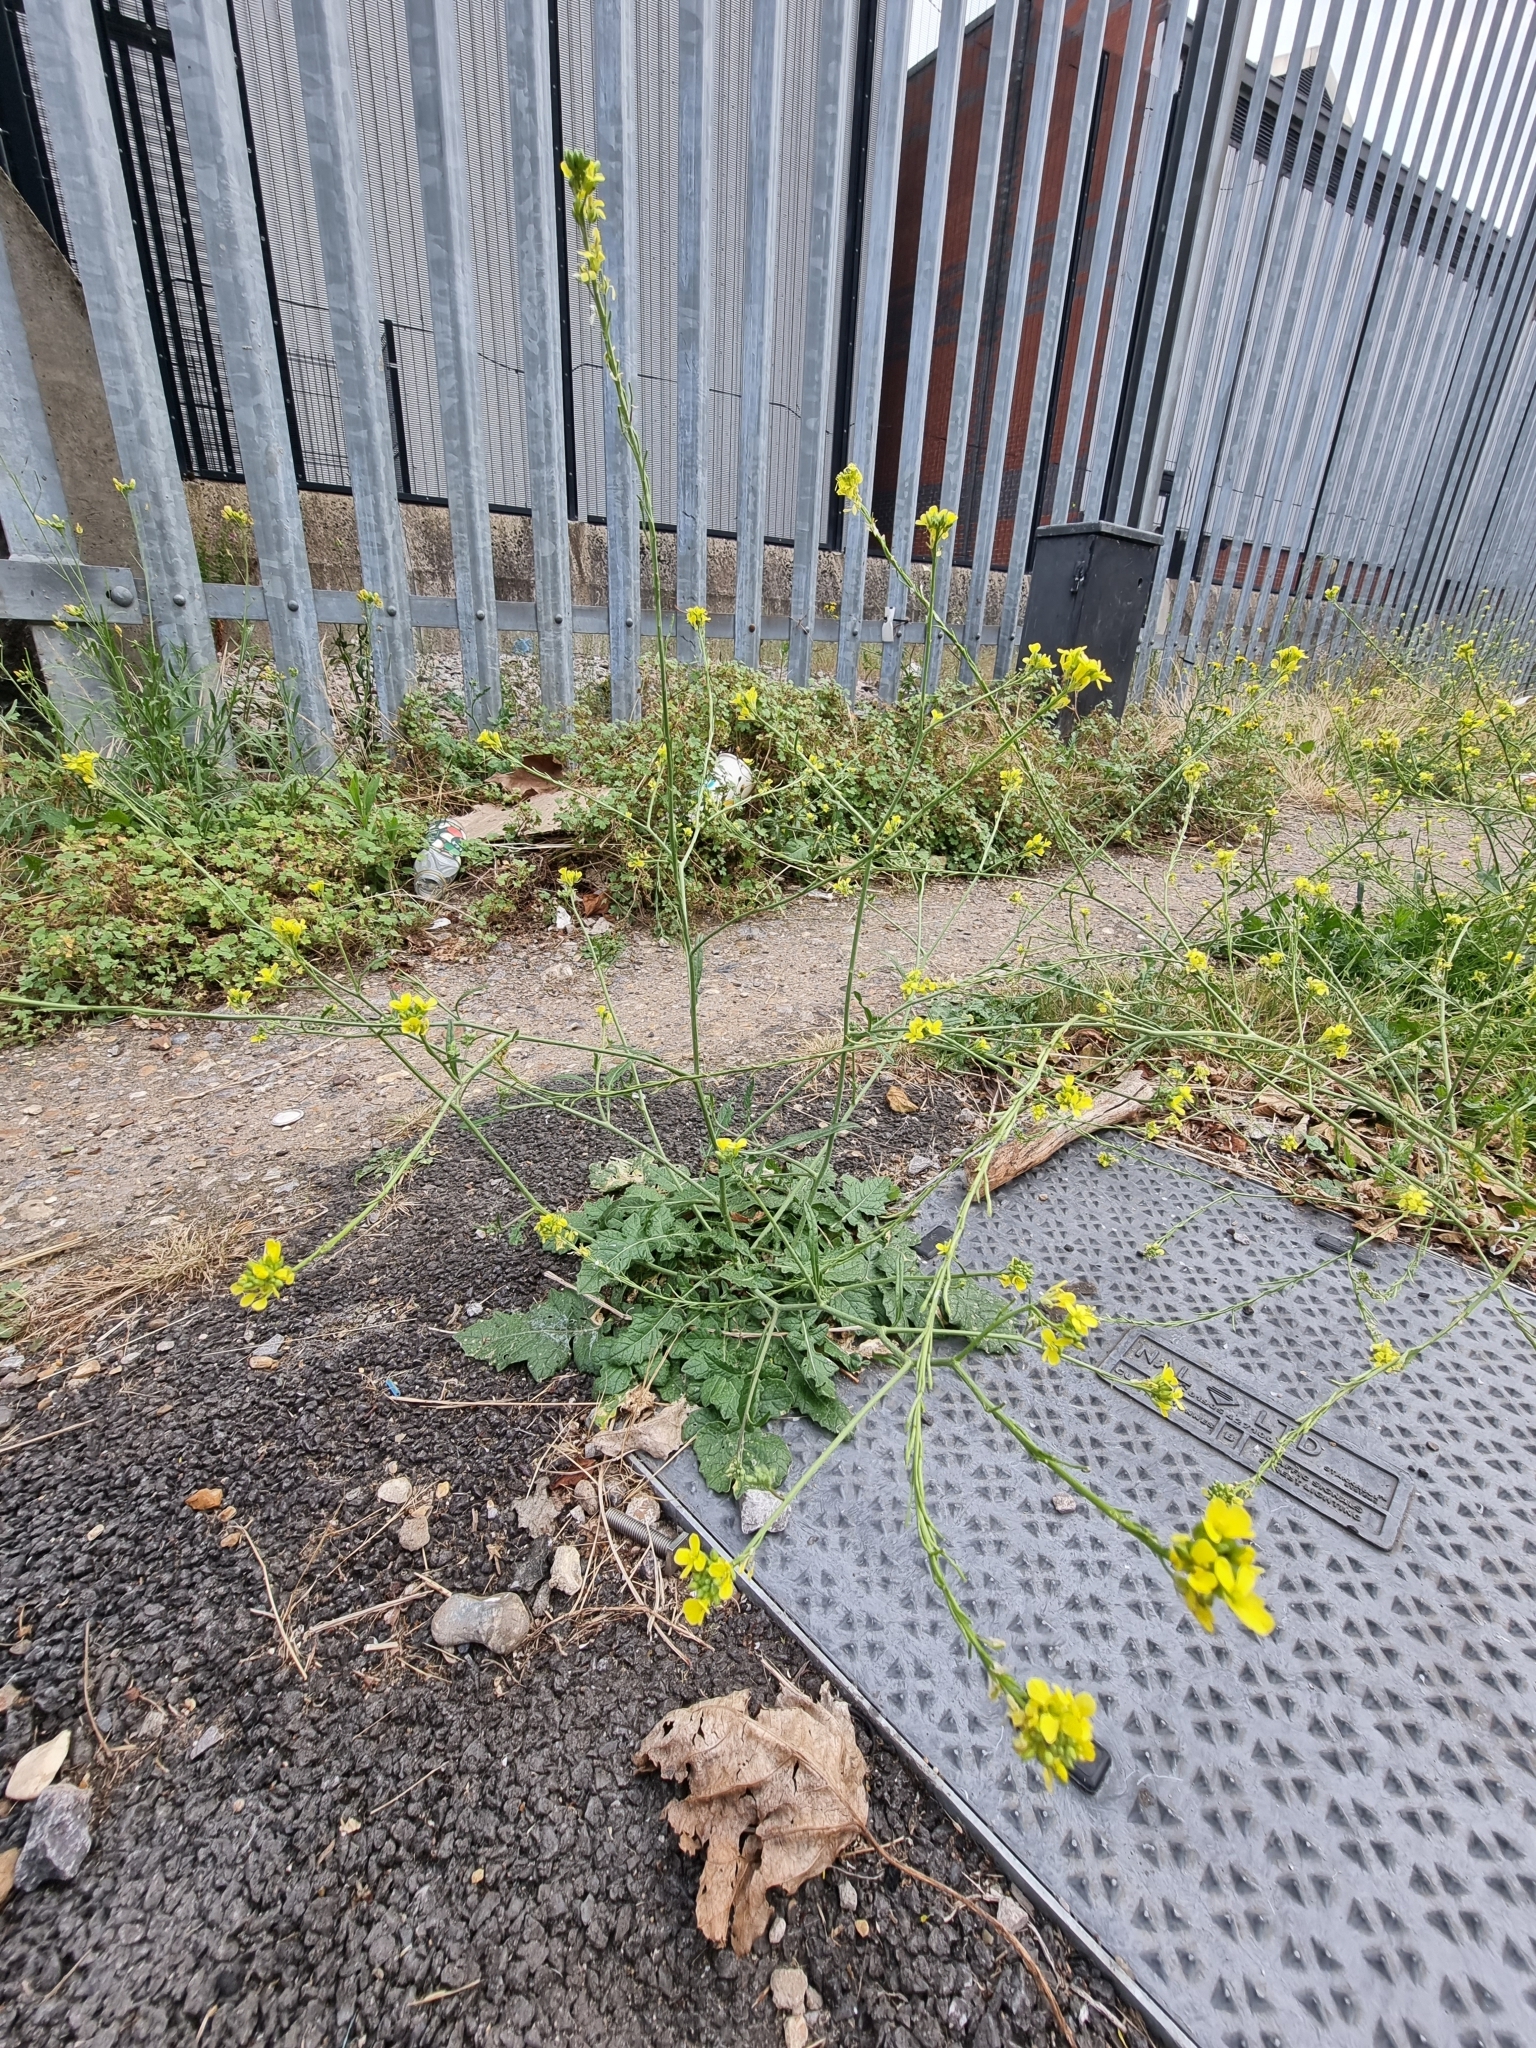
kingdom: Plantae
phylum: Tracheophyta
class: Magnoliopsida
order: Brassicales
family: Brassicaceae
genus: Hirschfeldia
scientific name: Hirschfeldia incana
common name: Hoary mustard
